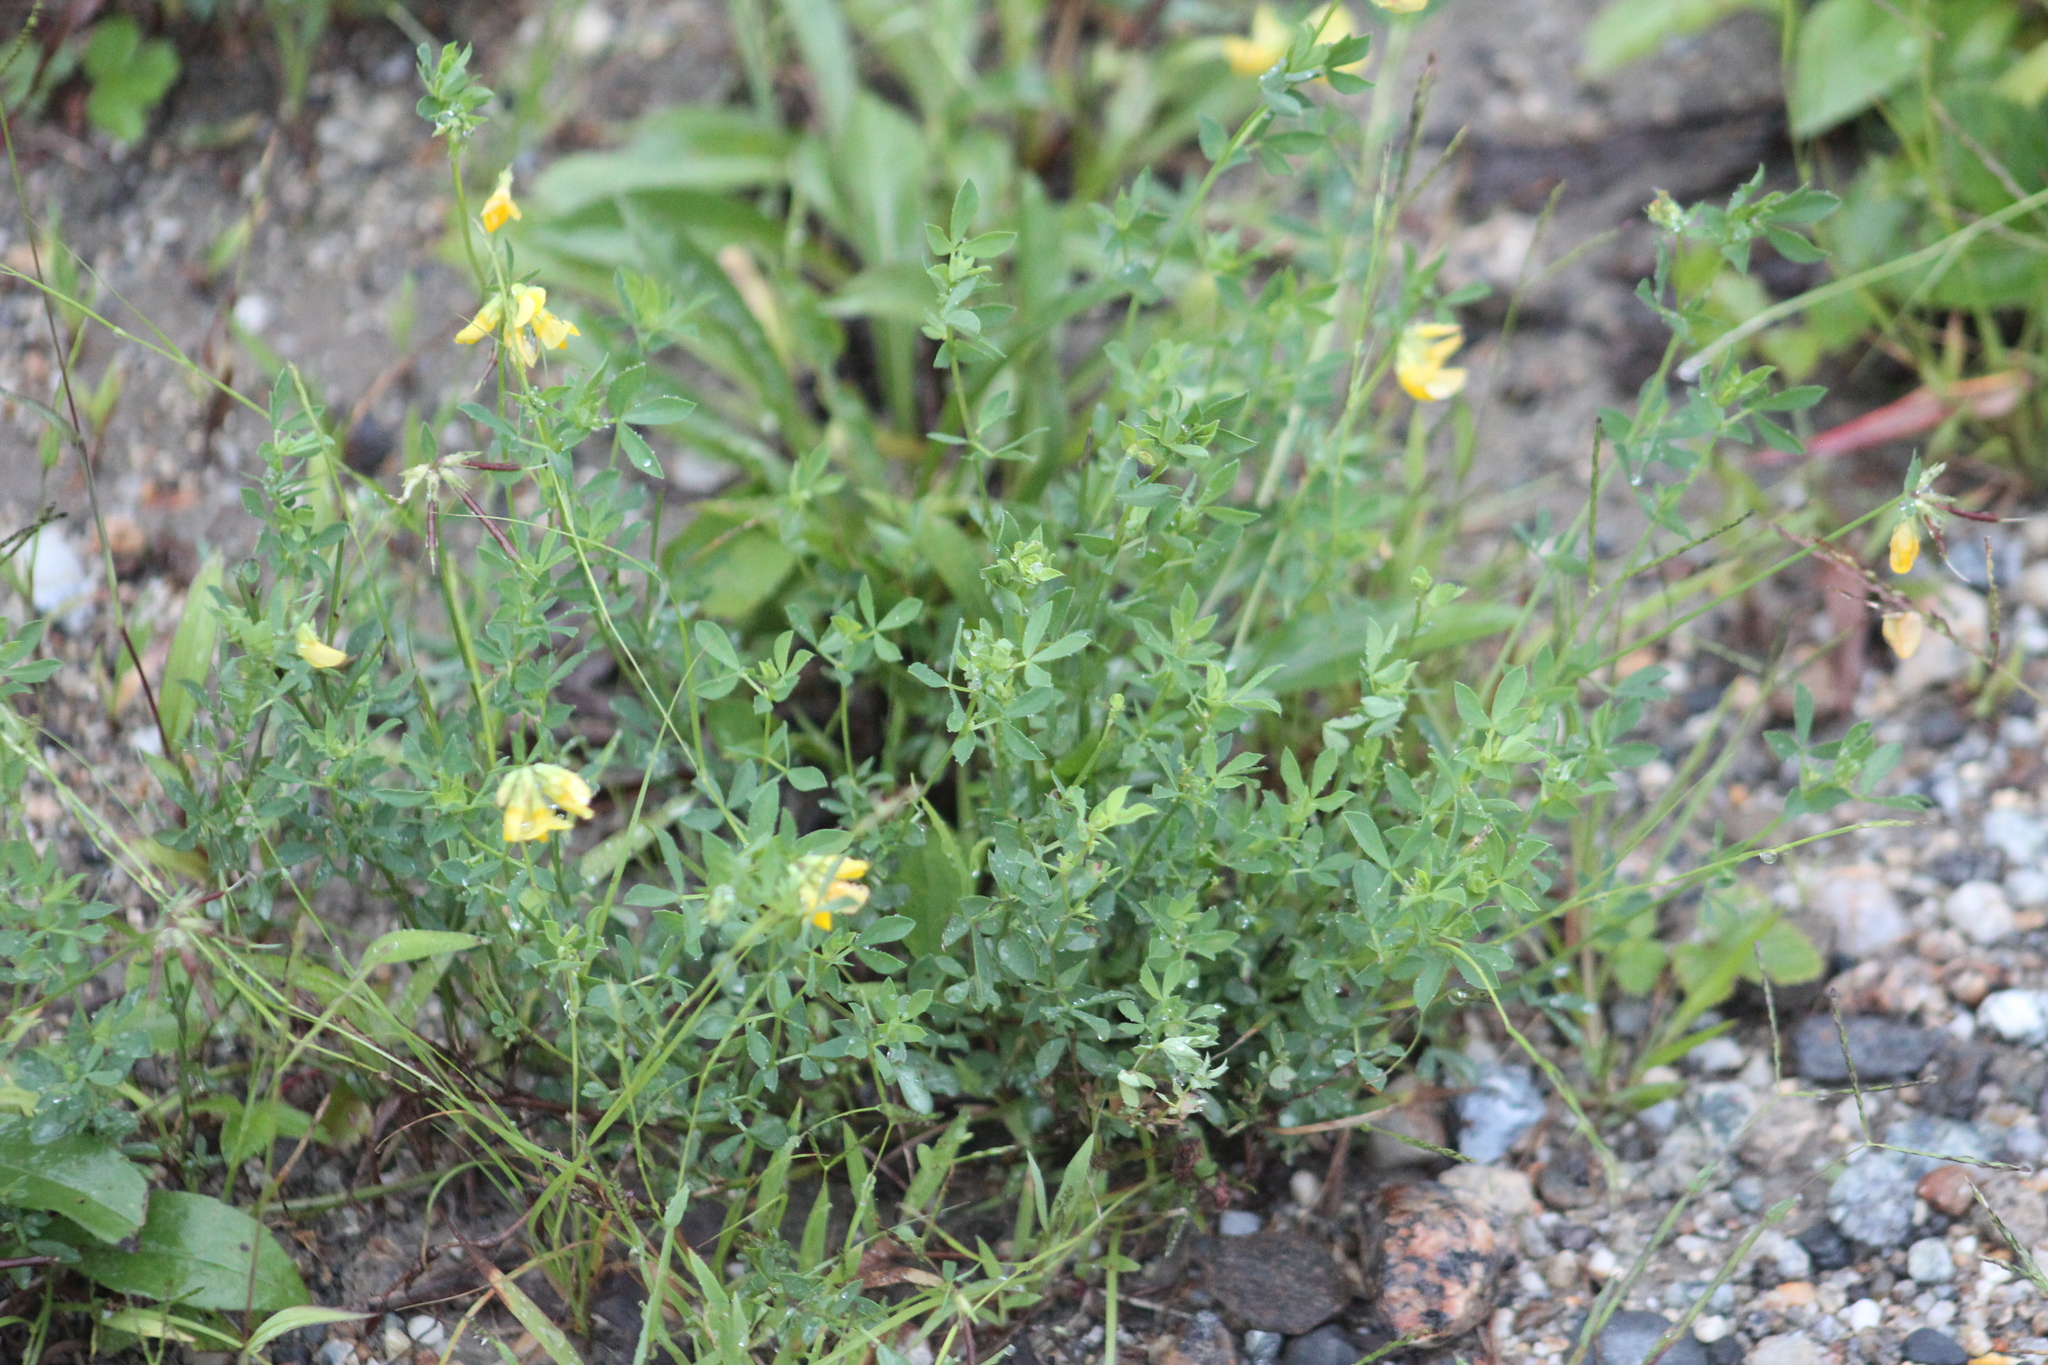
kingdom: Plantae
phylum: Tracheophyta
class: Magnoliopsida
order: Fabales
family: Fabaceae
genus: Lotus
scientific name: Lotus corniculatus
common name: Common bird's-foot-trefoil
